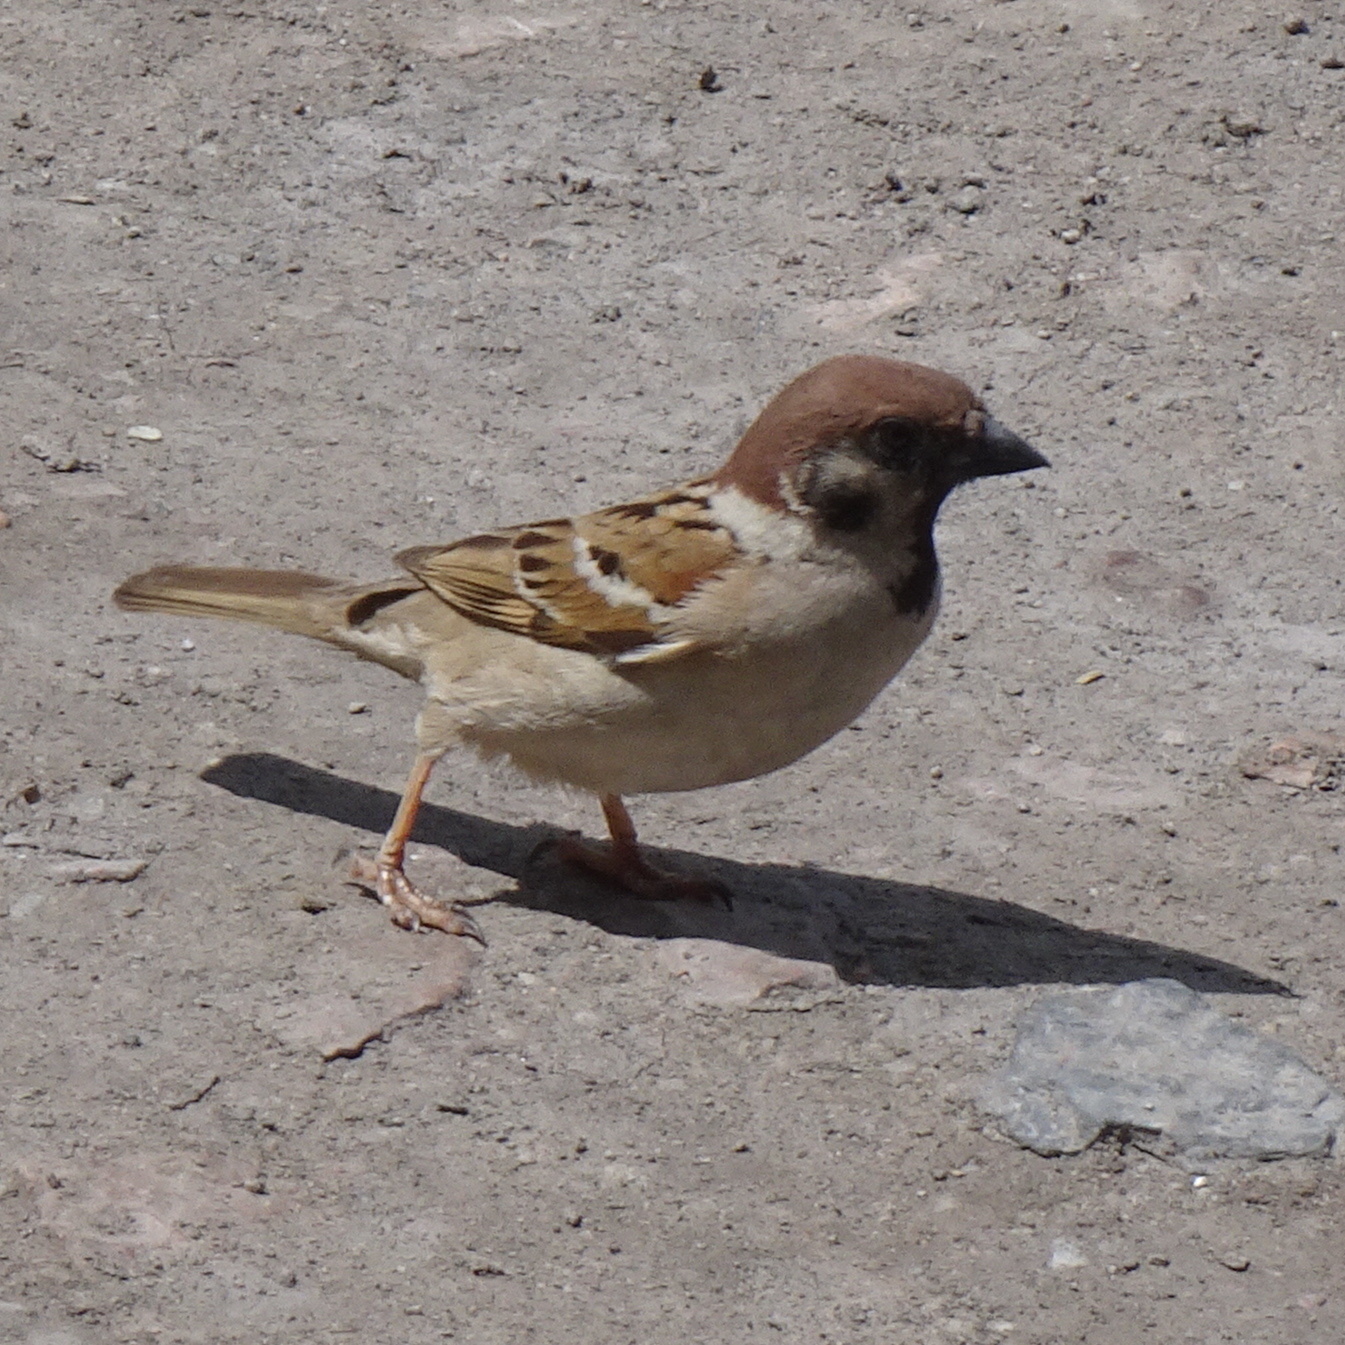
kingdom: Animalia
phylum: Chordata
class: Aves
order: Passeriformes
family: Passeridae
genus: Passer
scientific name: Passer montanus
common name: Eurasian tree sparrow
